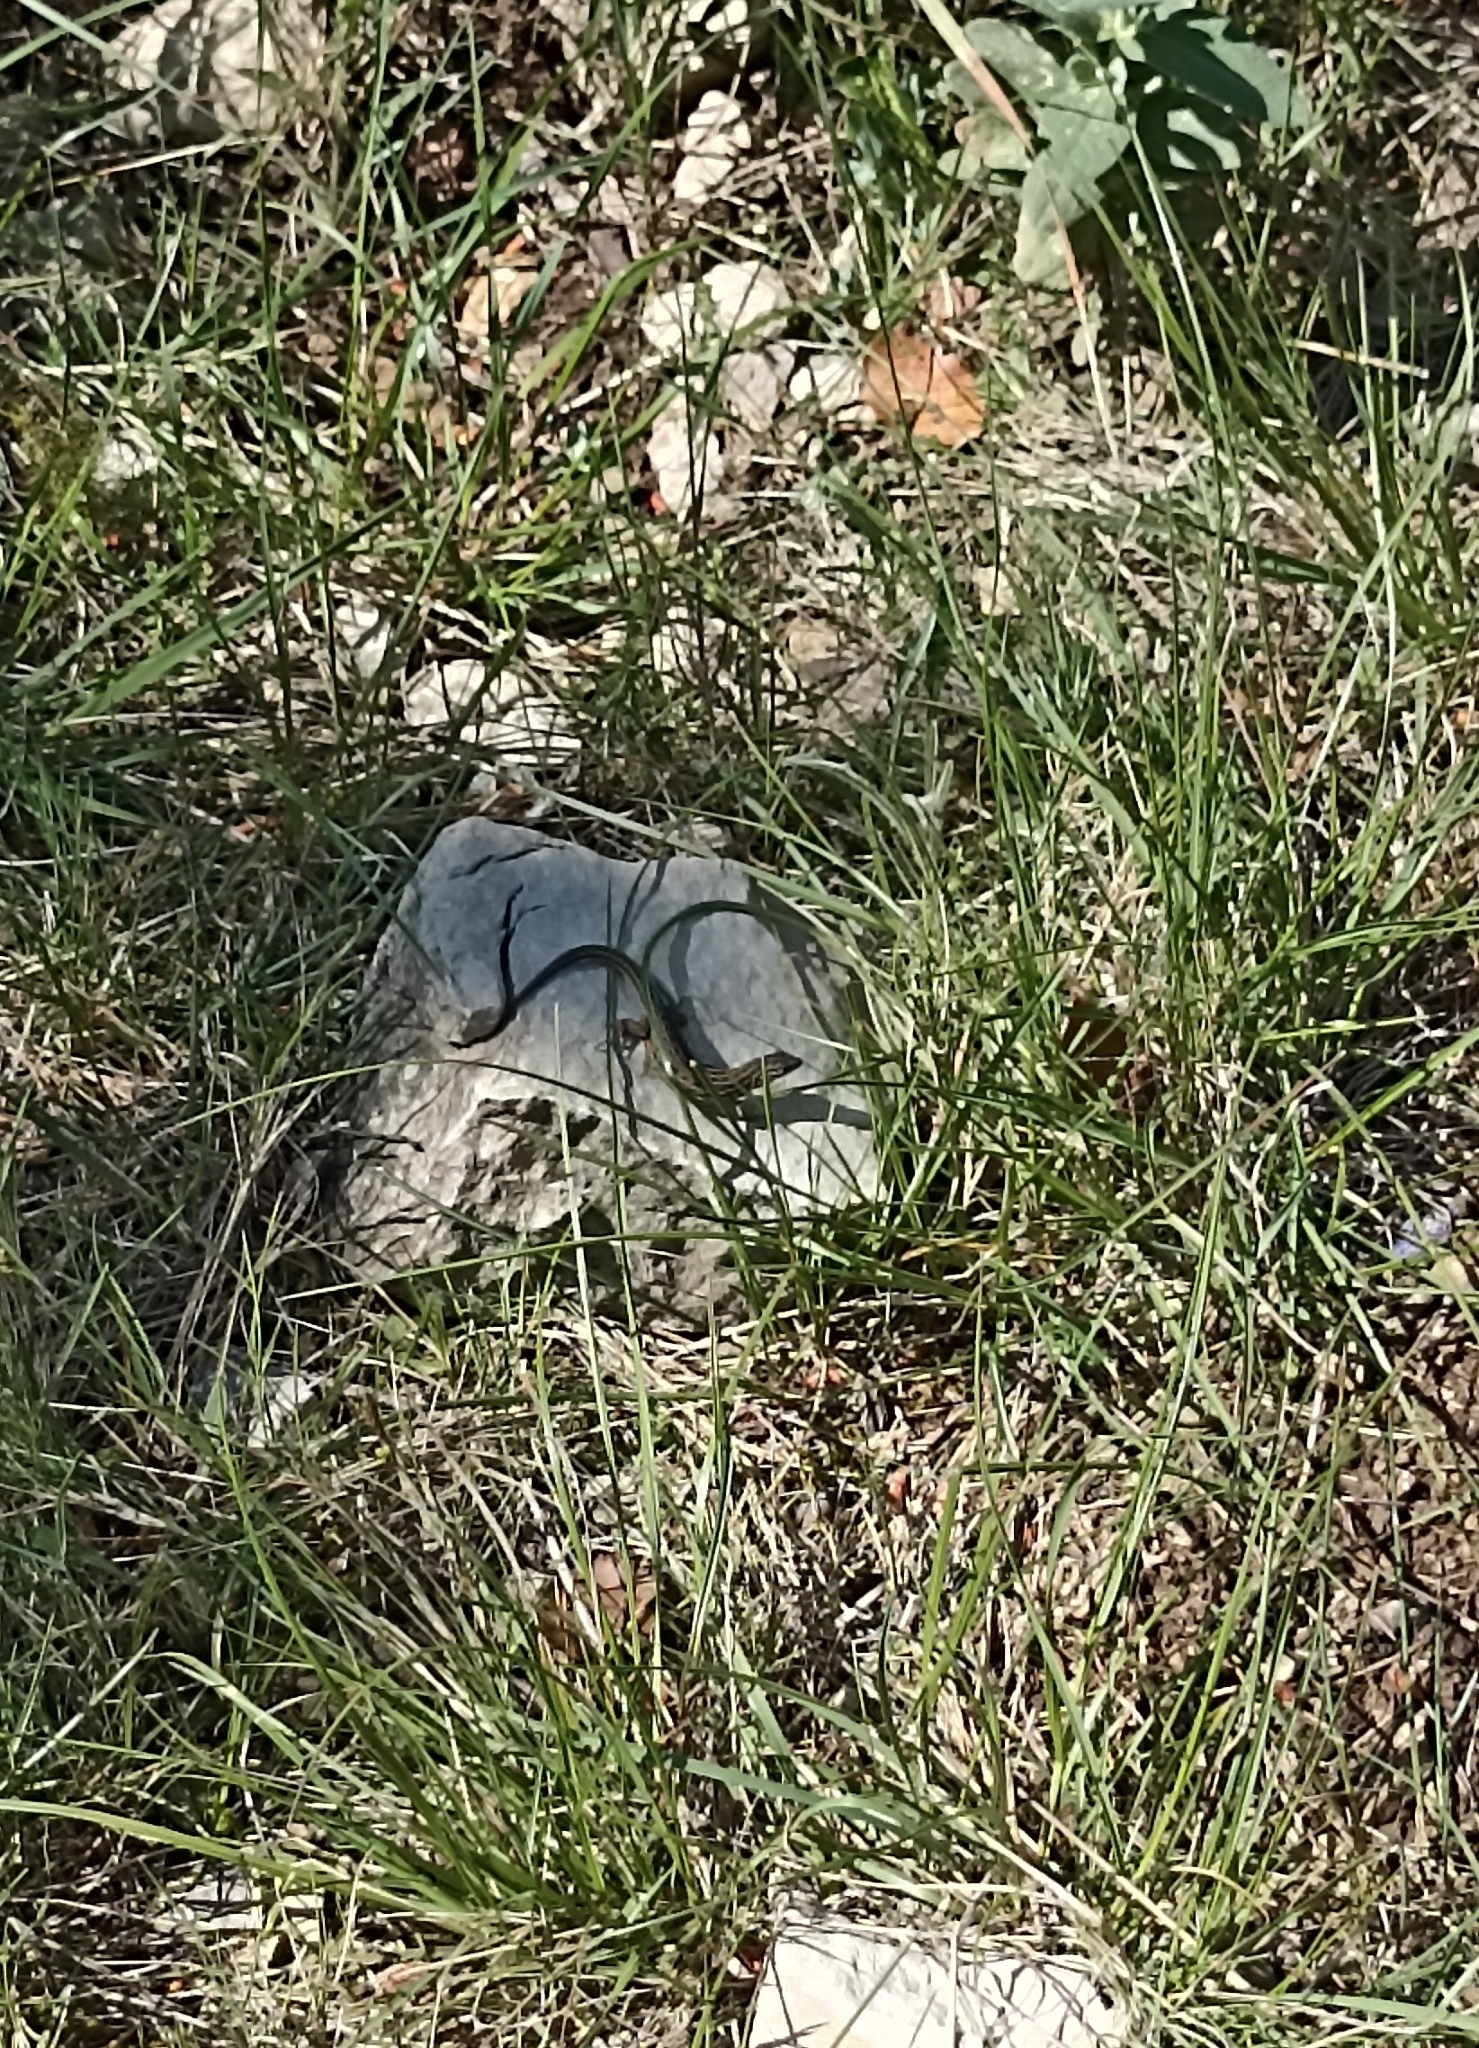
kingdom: Animalia
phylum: Chordata
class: Squamata
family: Lacertidae
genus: Psammodromus
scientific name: Psammodromus edwarsianus
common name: East iberian psammodromus
